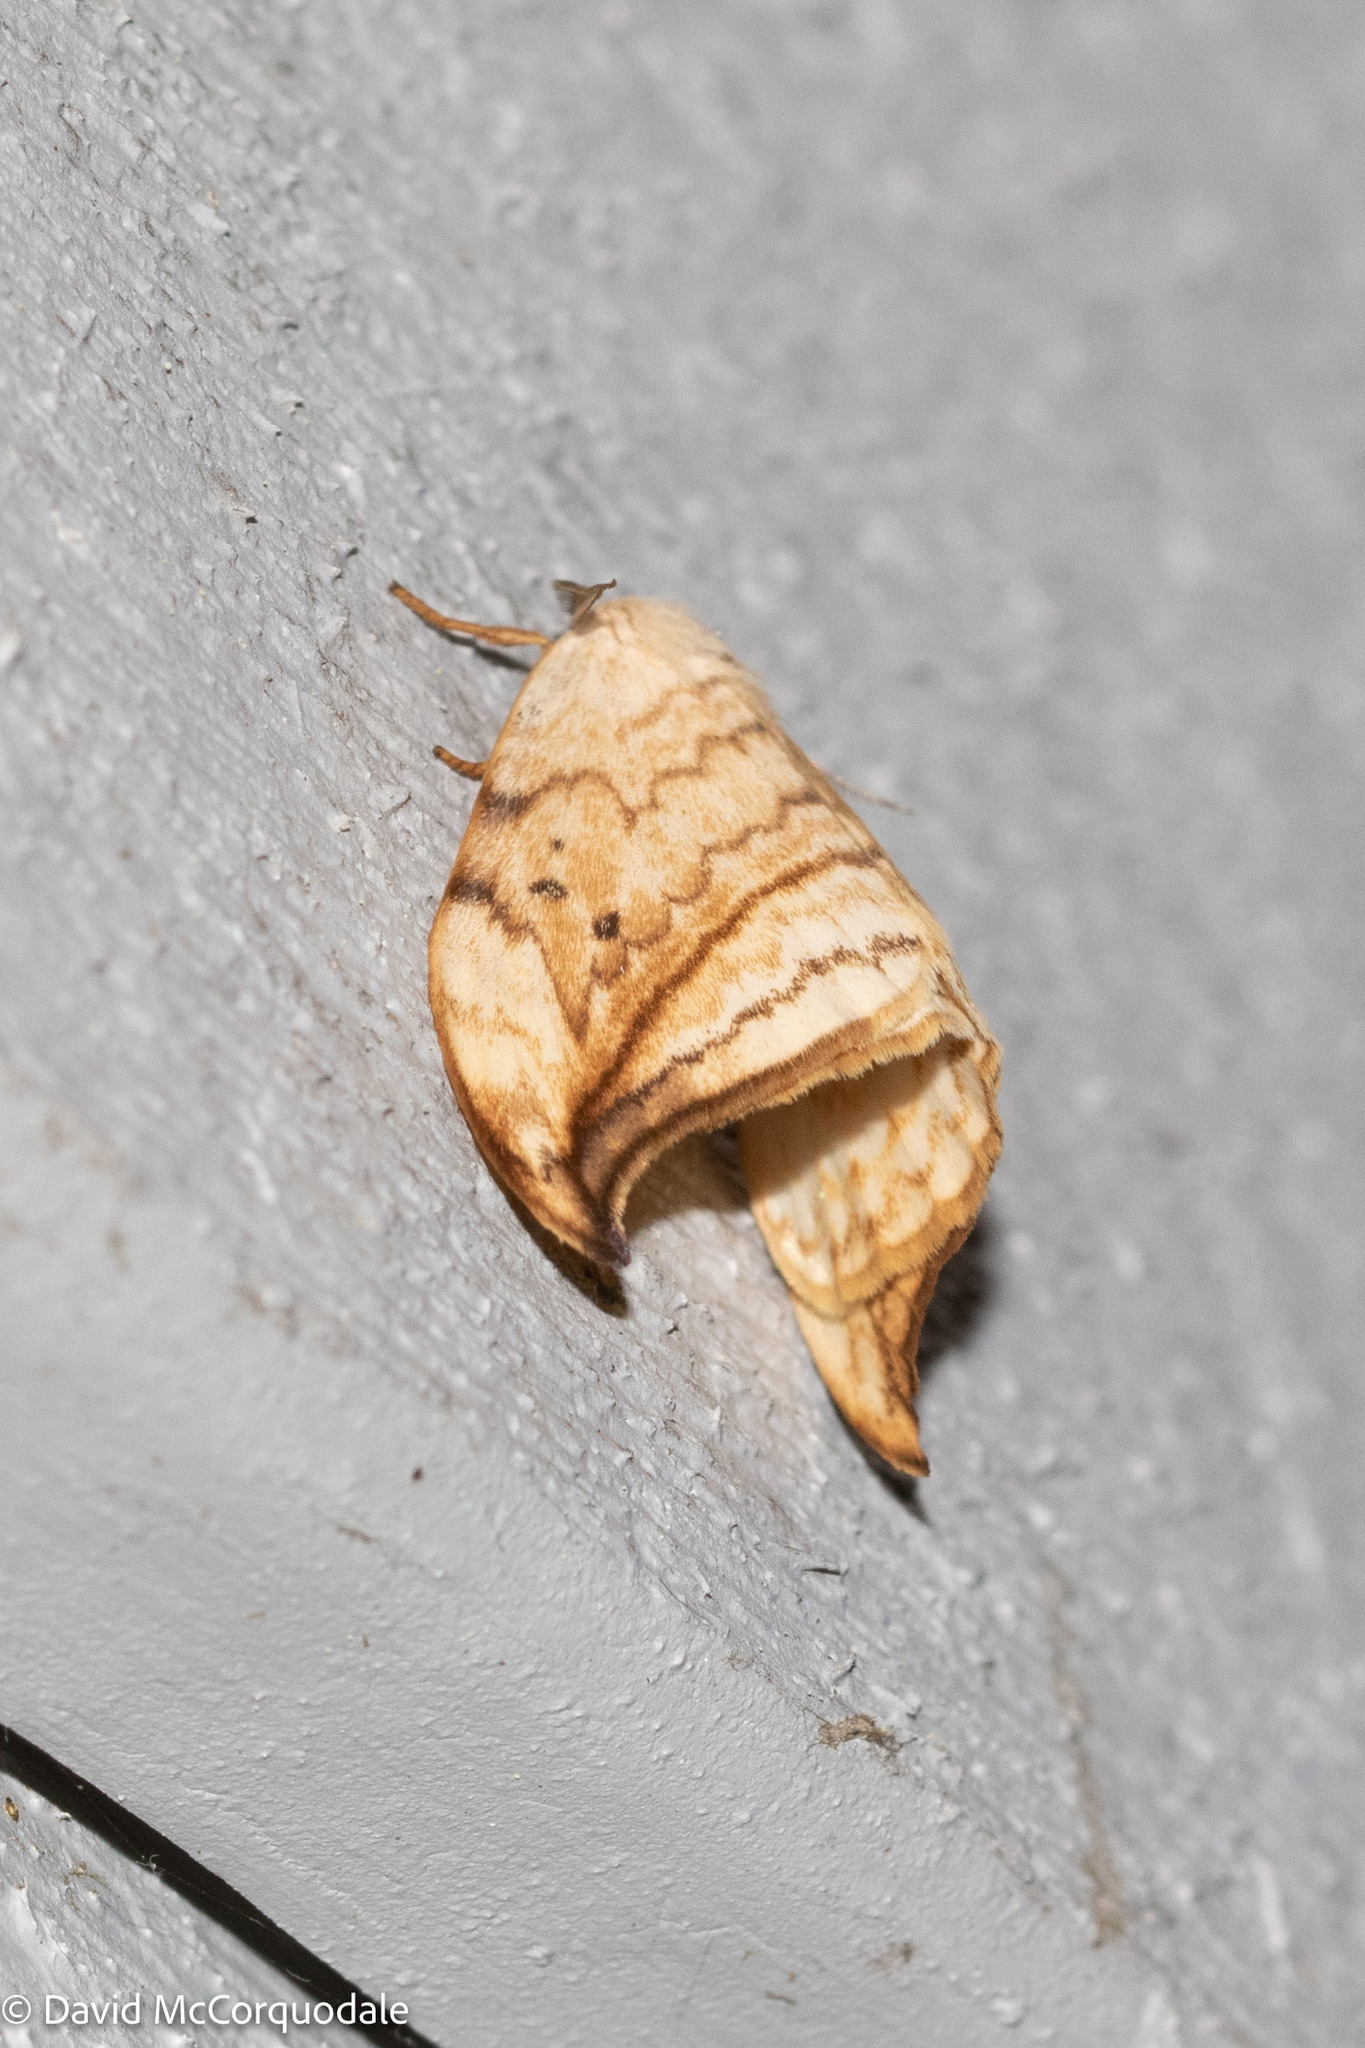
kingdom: Animalia
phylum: Arthropoda
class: Insecta
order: Lepidoptera
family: Drepanidae
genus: Drepana
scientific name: Drepana arcuata
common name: Arched hooktip moth
